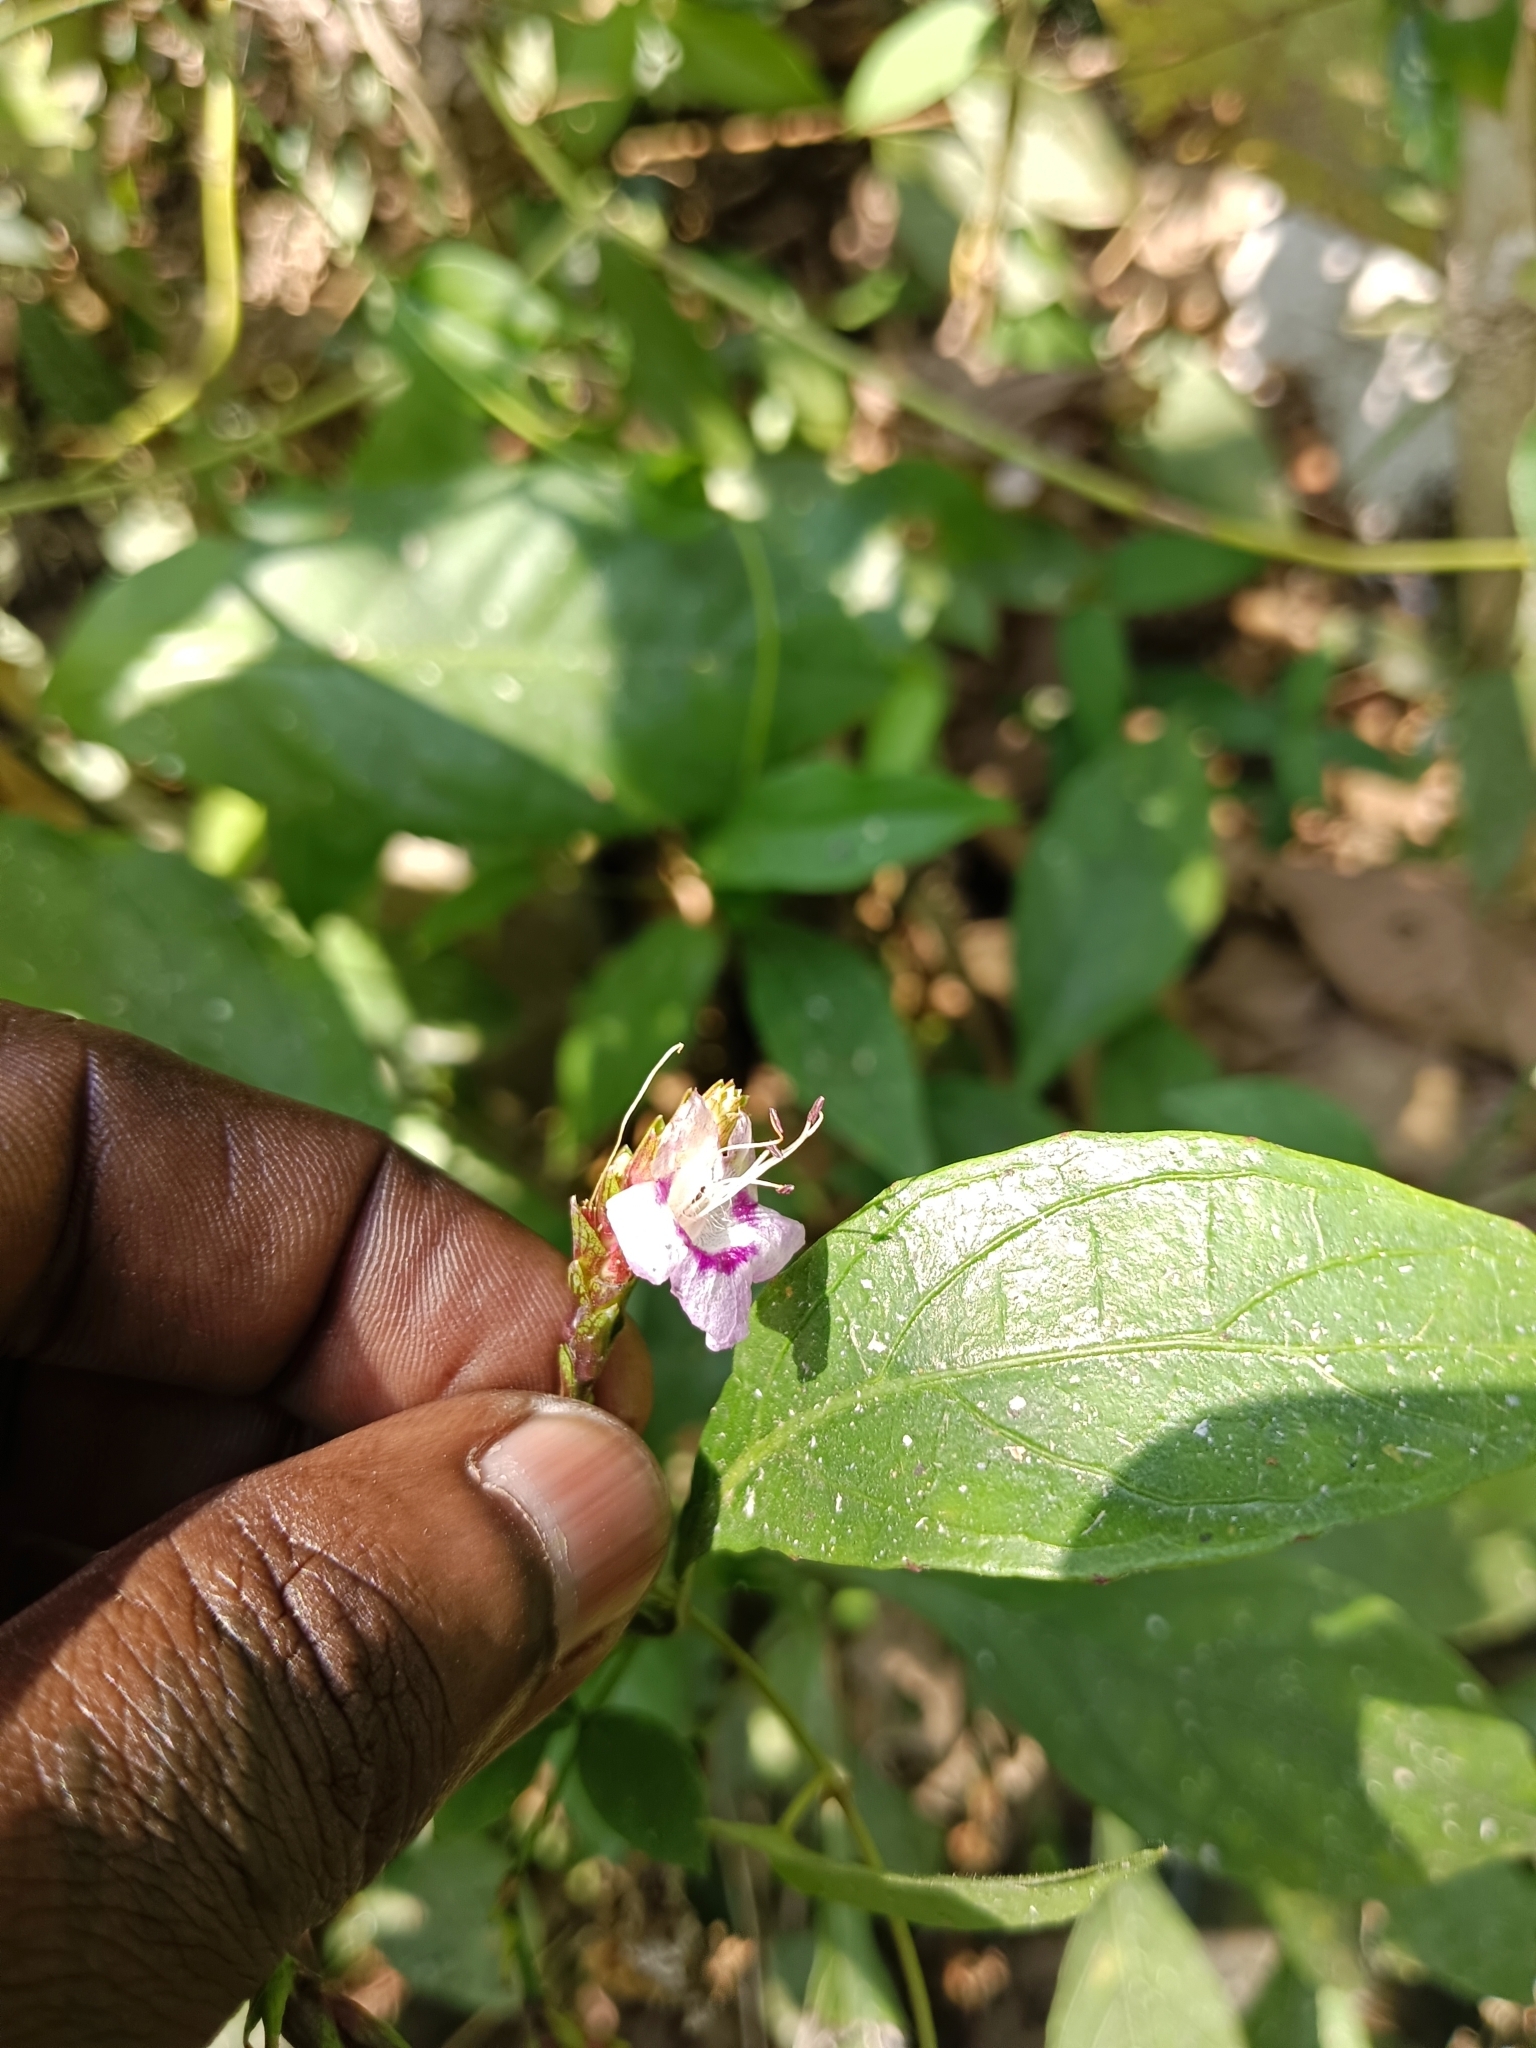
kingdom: Plantae
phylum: Tracheophyta
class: Magnoliopsida
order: Lamiales
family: Acanthaceae
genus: Strobilanthes
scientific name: Strobilanthes ciliata
